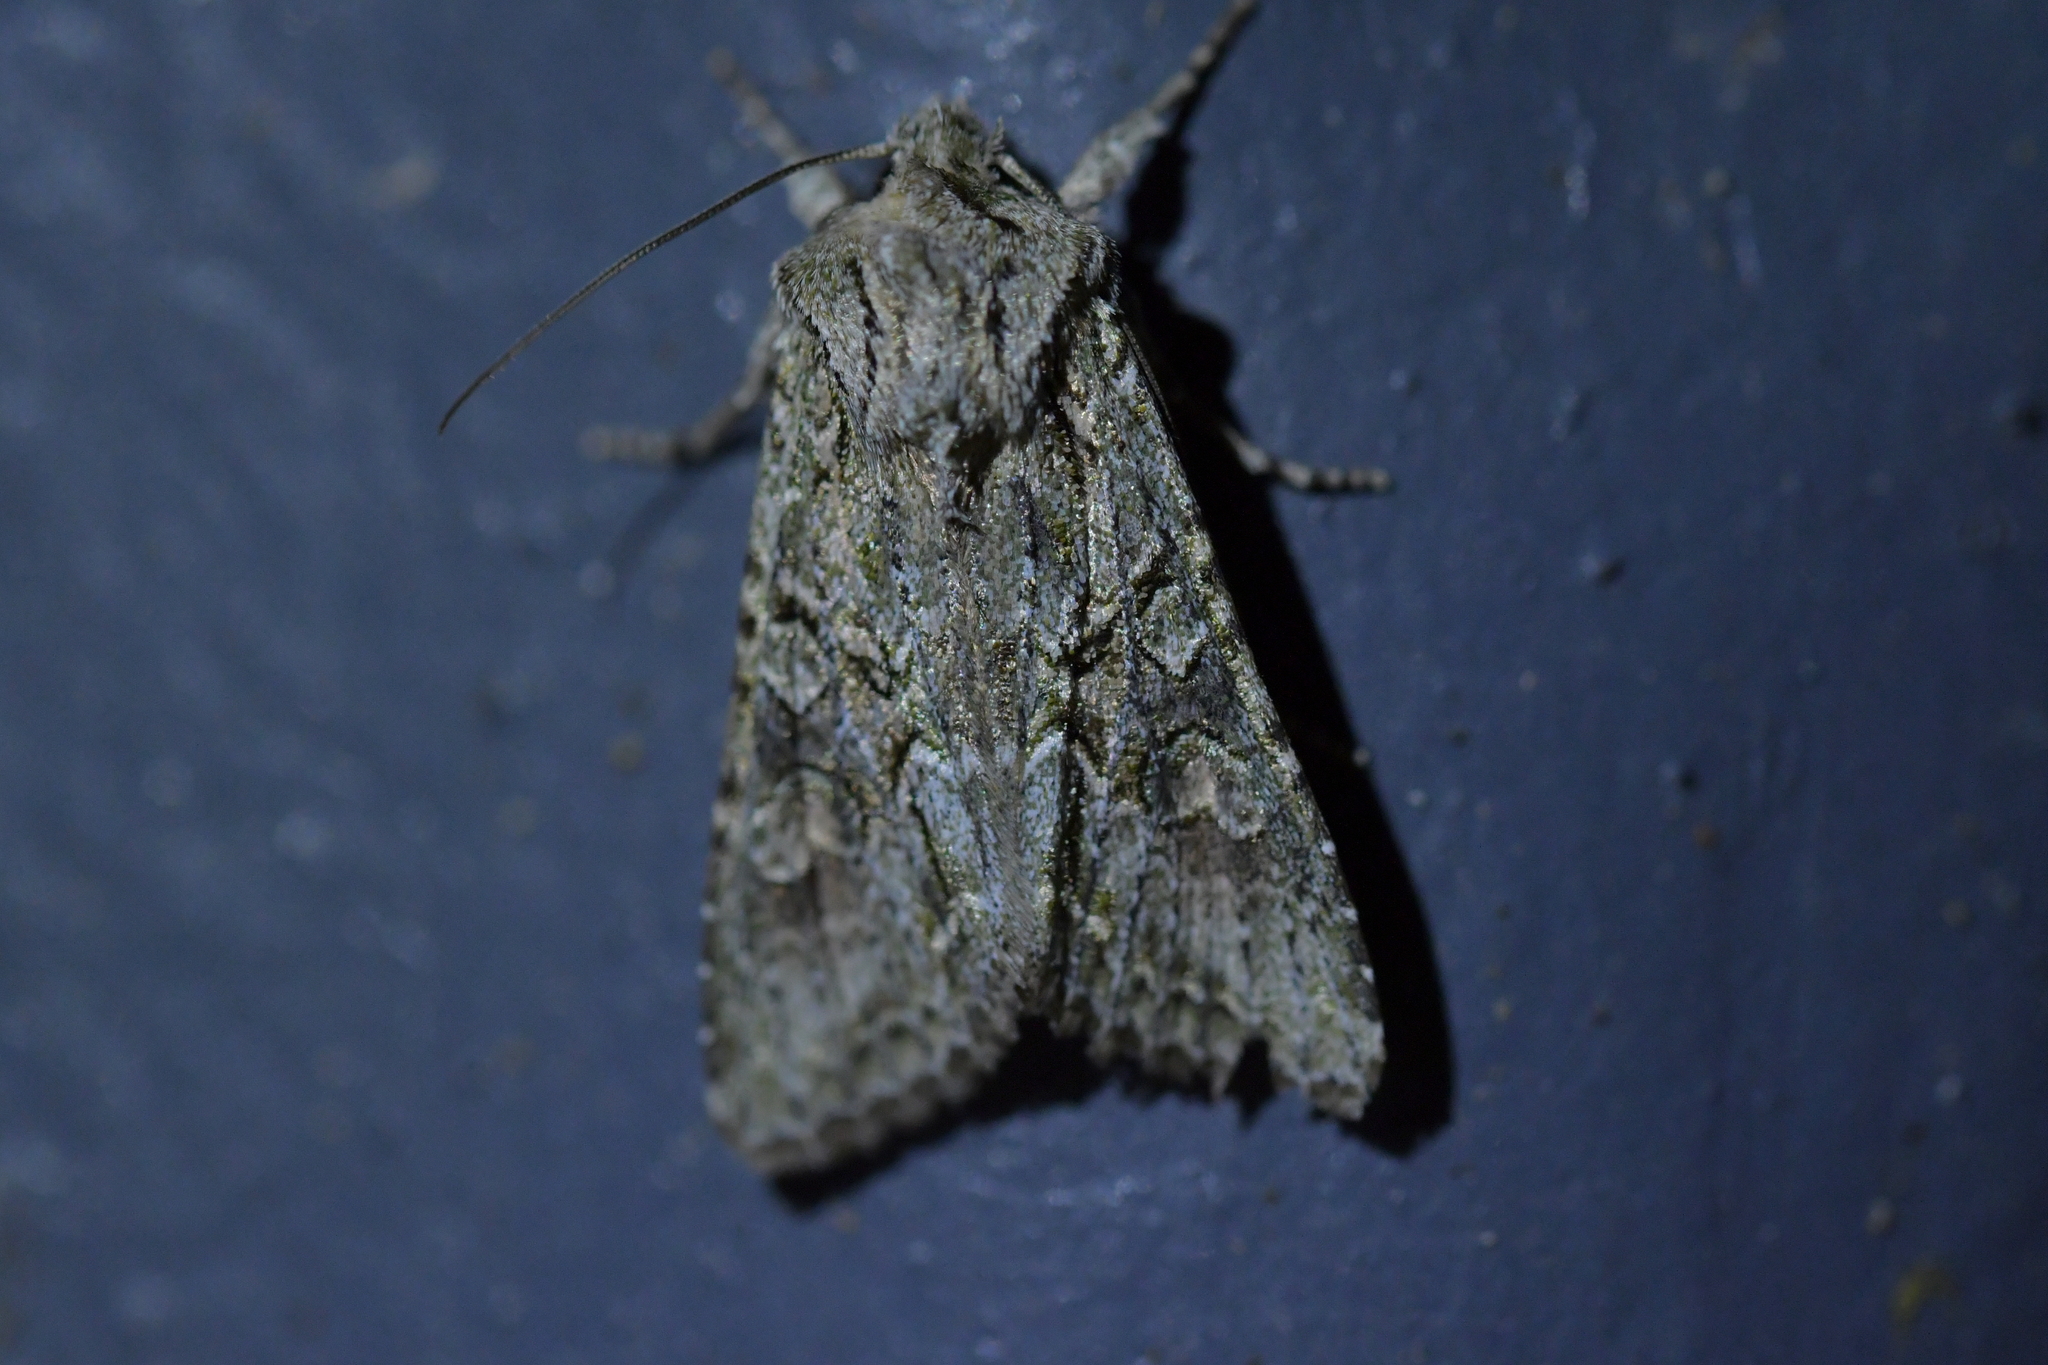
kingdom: Animalia
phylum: Arthropoda
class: Insecta
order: Lepidoptera
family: Noctuidae
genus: Ichneutica
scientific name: Ichneutica mutans
